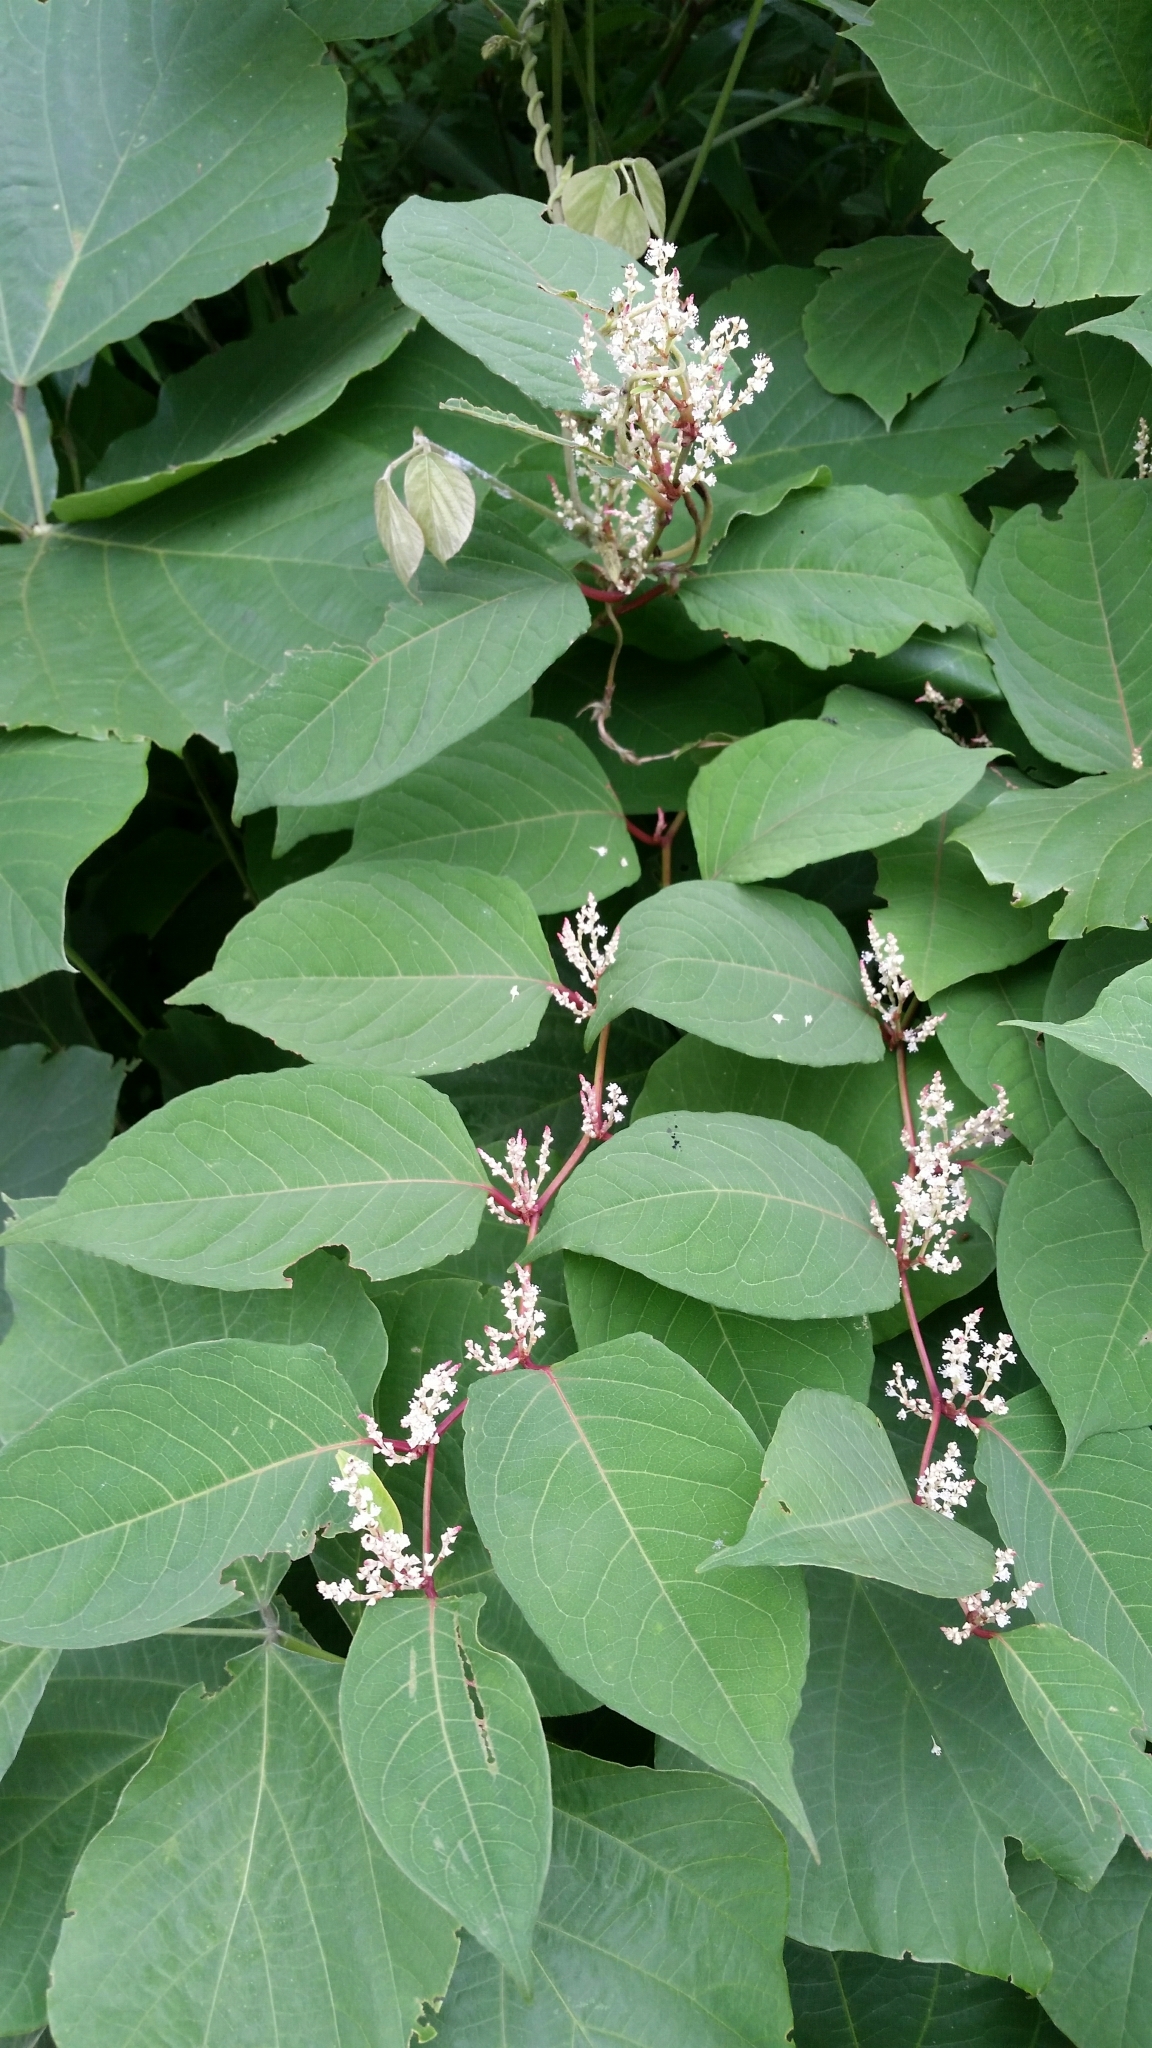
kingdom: Plantae
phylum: Tracheophyta
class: Magnoliopsida
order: Caryophyllales
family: Polygonaceae
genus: Reynoutria
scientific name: Reynoutria japonica
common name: Japanese knotweed
